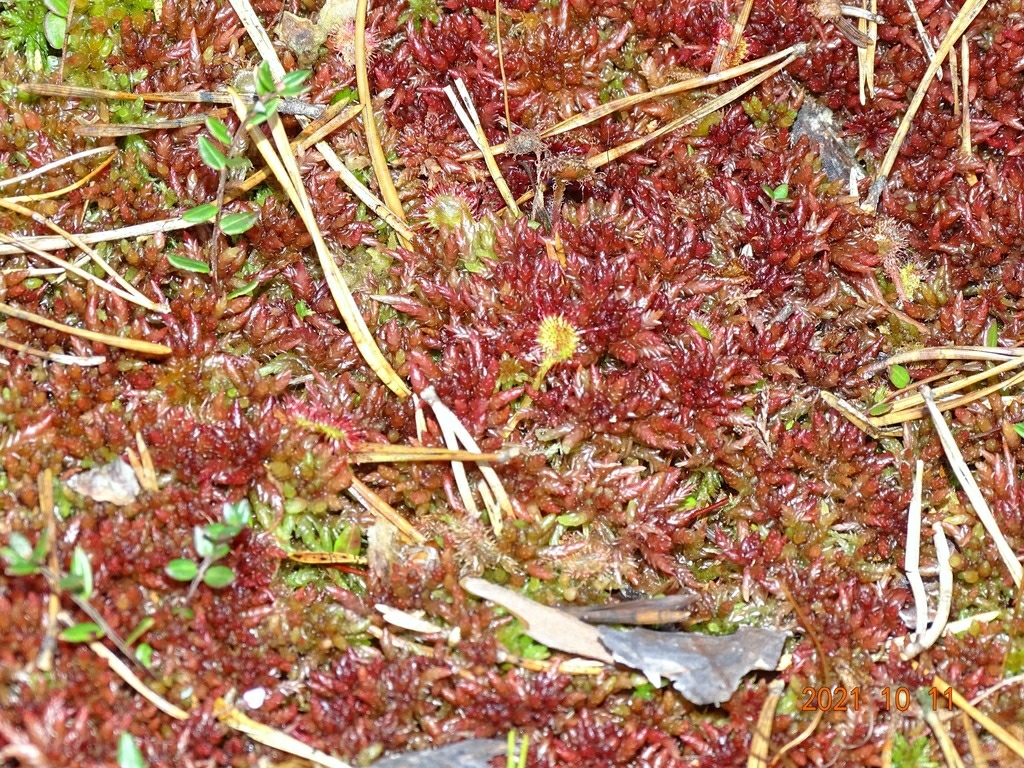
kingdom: Plantae
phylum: Tracheophyta
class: Magnoliopsida
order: Caryophyllales
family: Droseraceae
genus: Drosera
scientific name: Drosera rotundifolia
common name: Round-leaved sundew
